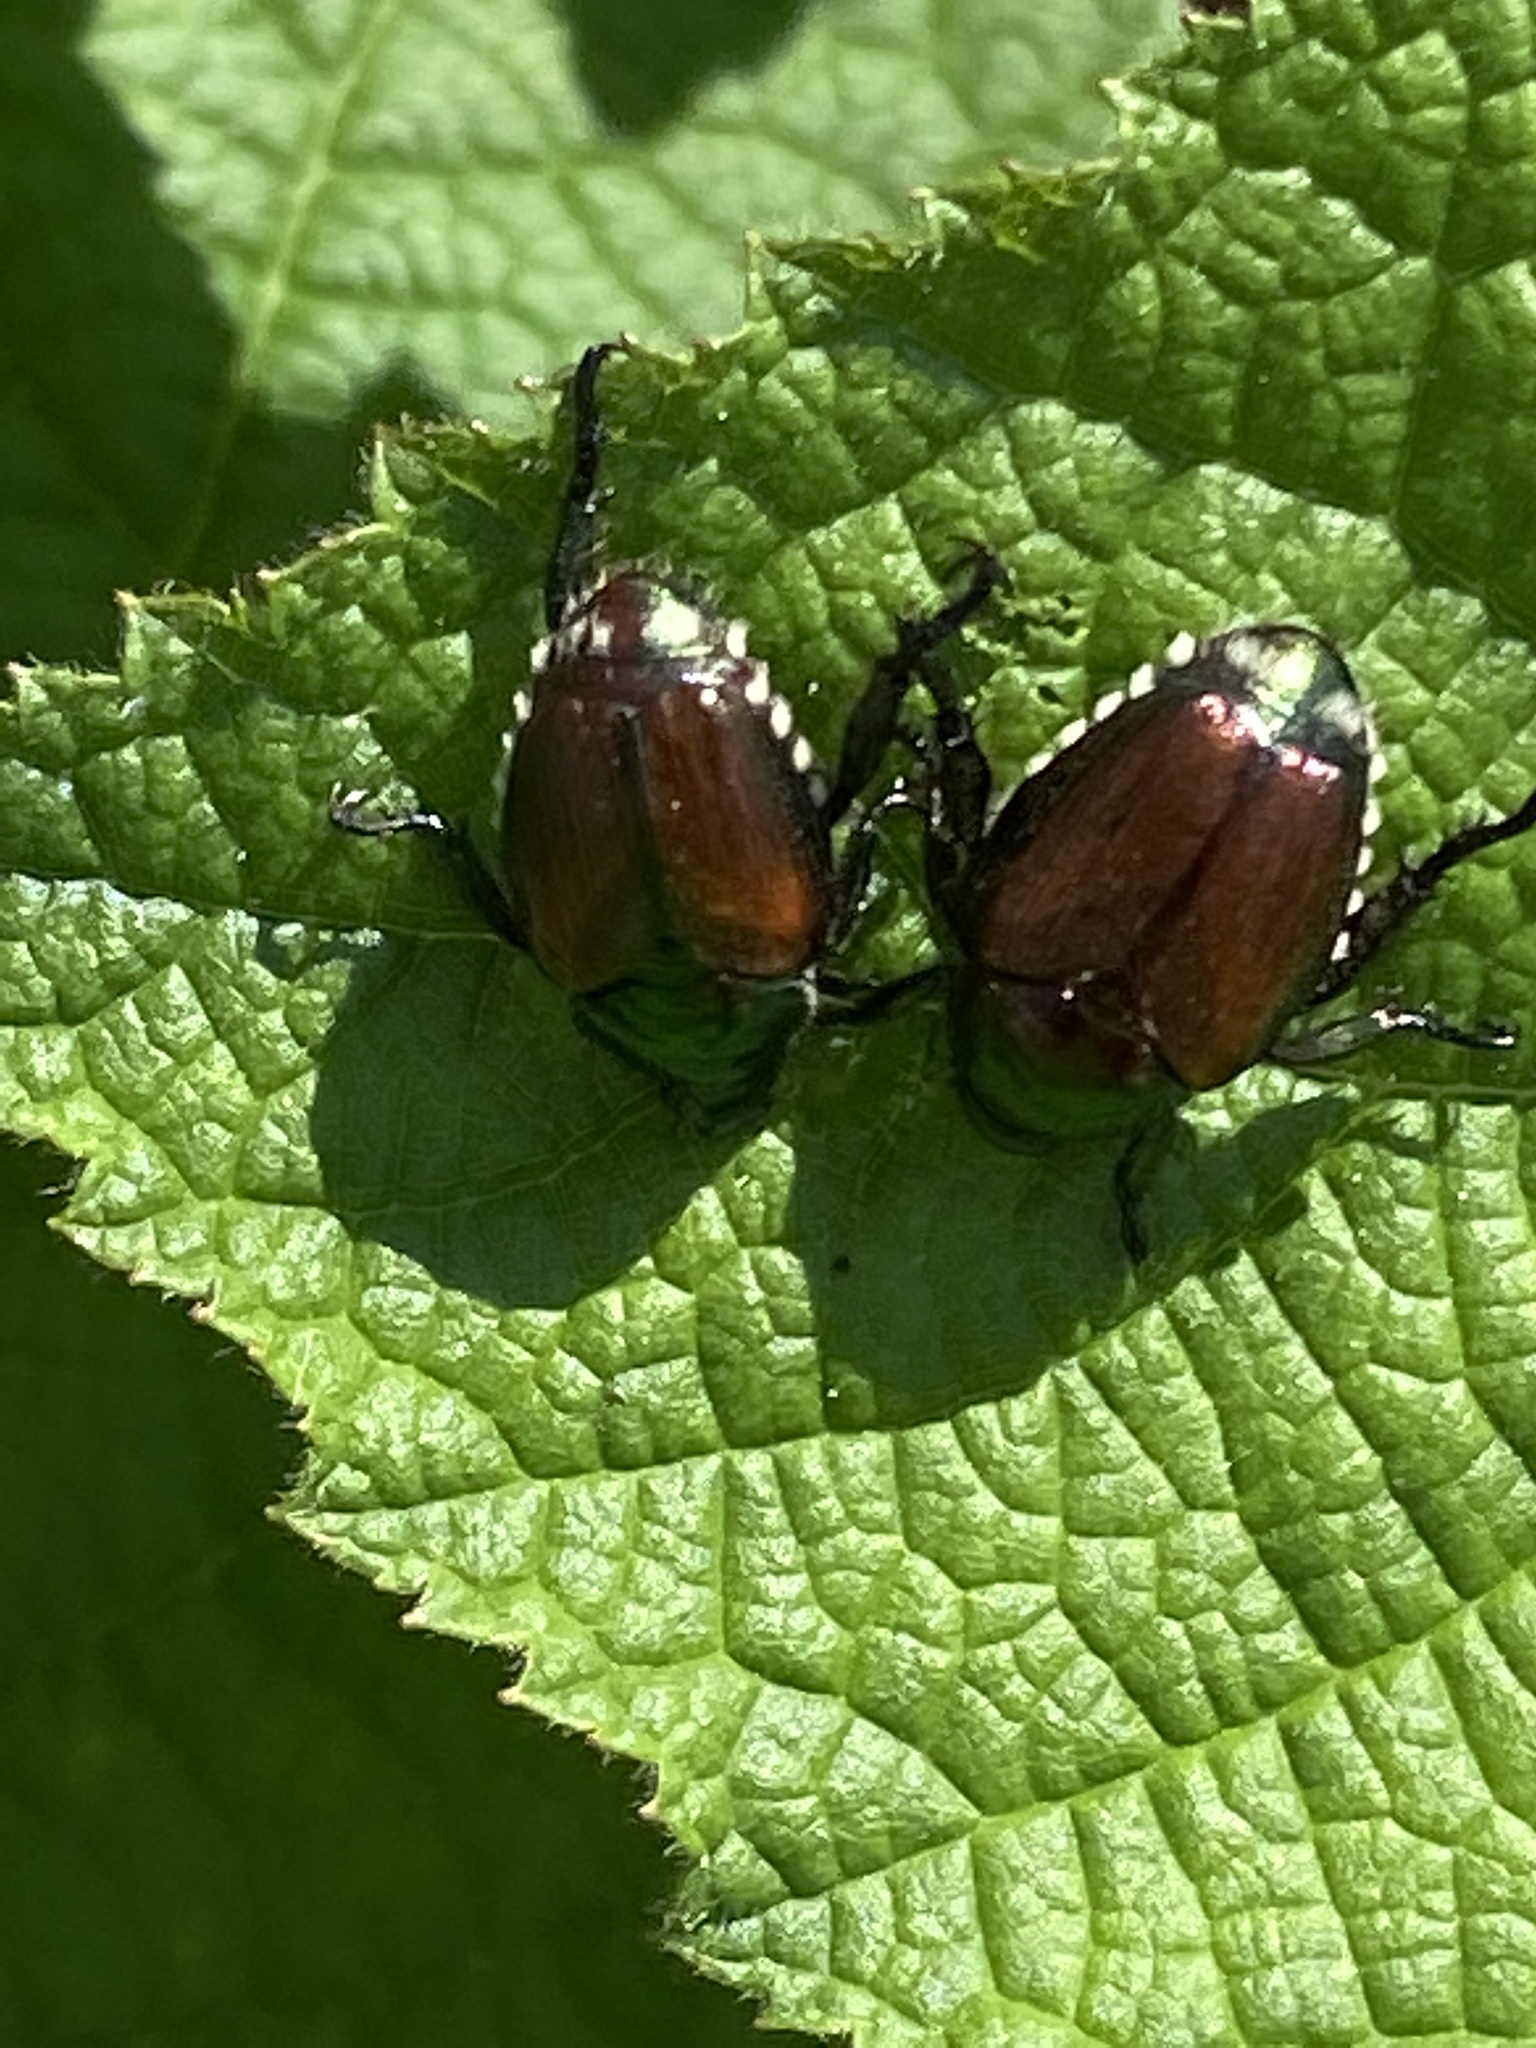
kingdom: Animalia
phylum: Arthropoda
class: Insecta
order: Coleoptera
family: Scarabaeidae
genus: Popillia
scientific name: Popillia japonica
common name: Japanese beetle
